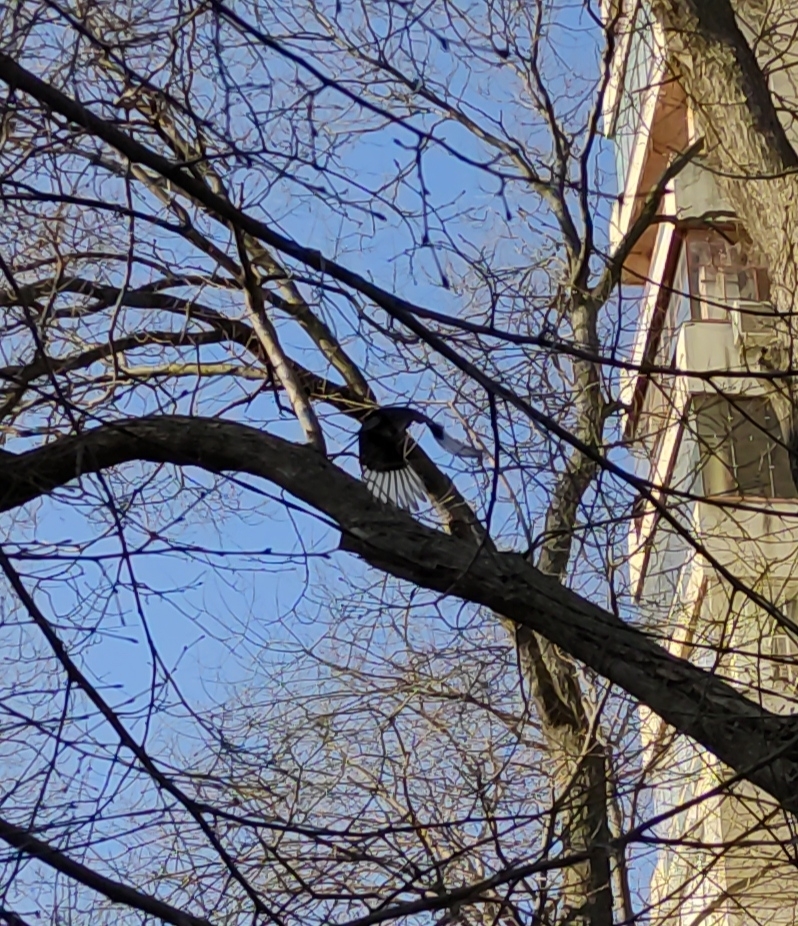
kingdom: Animalia
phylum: Chordata
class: Aves
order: Passeriformes
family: Corvidae
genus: Pica
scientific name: Pica pica
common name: Eurasian magpie
